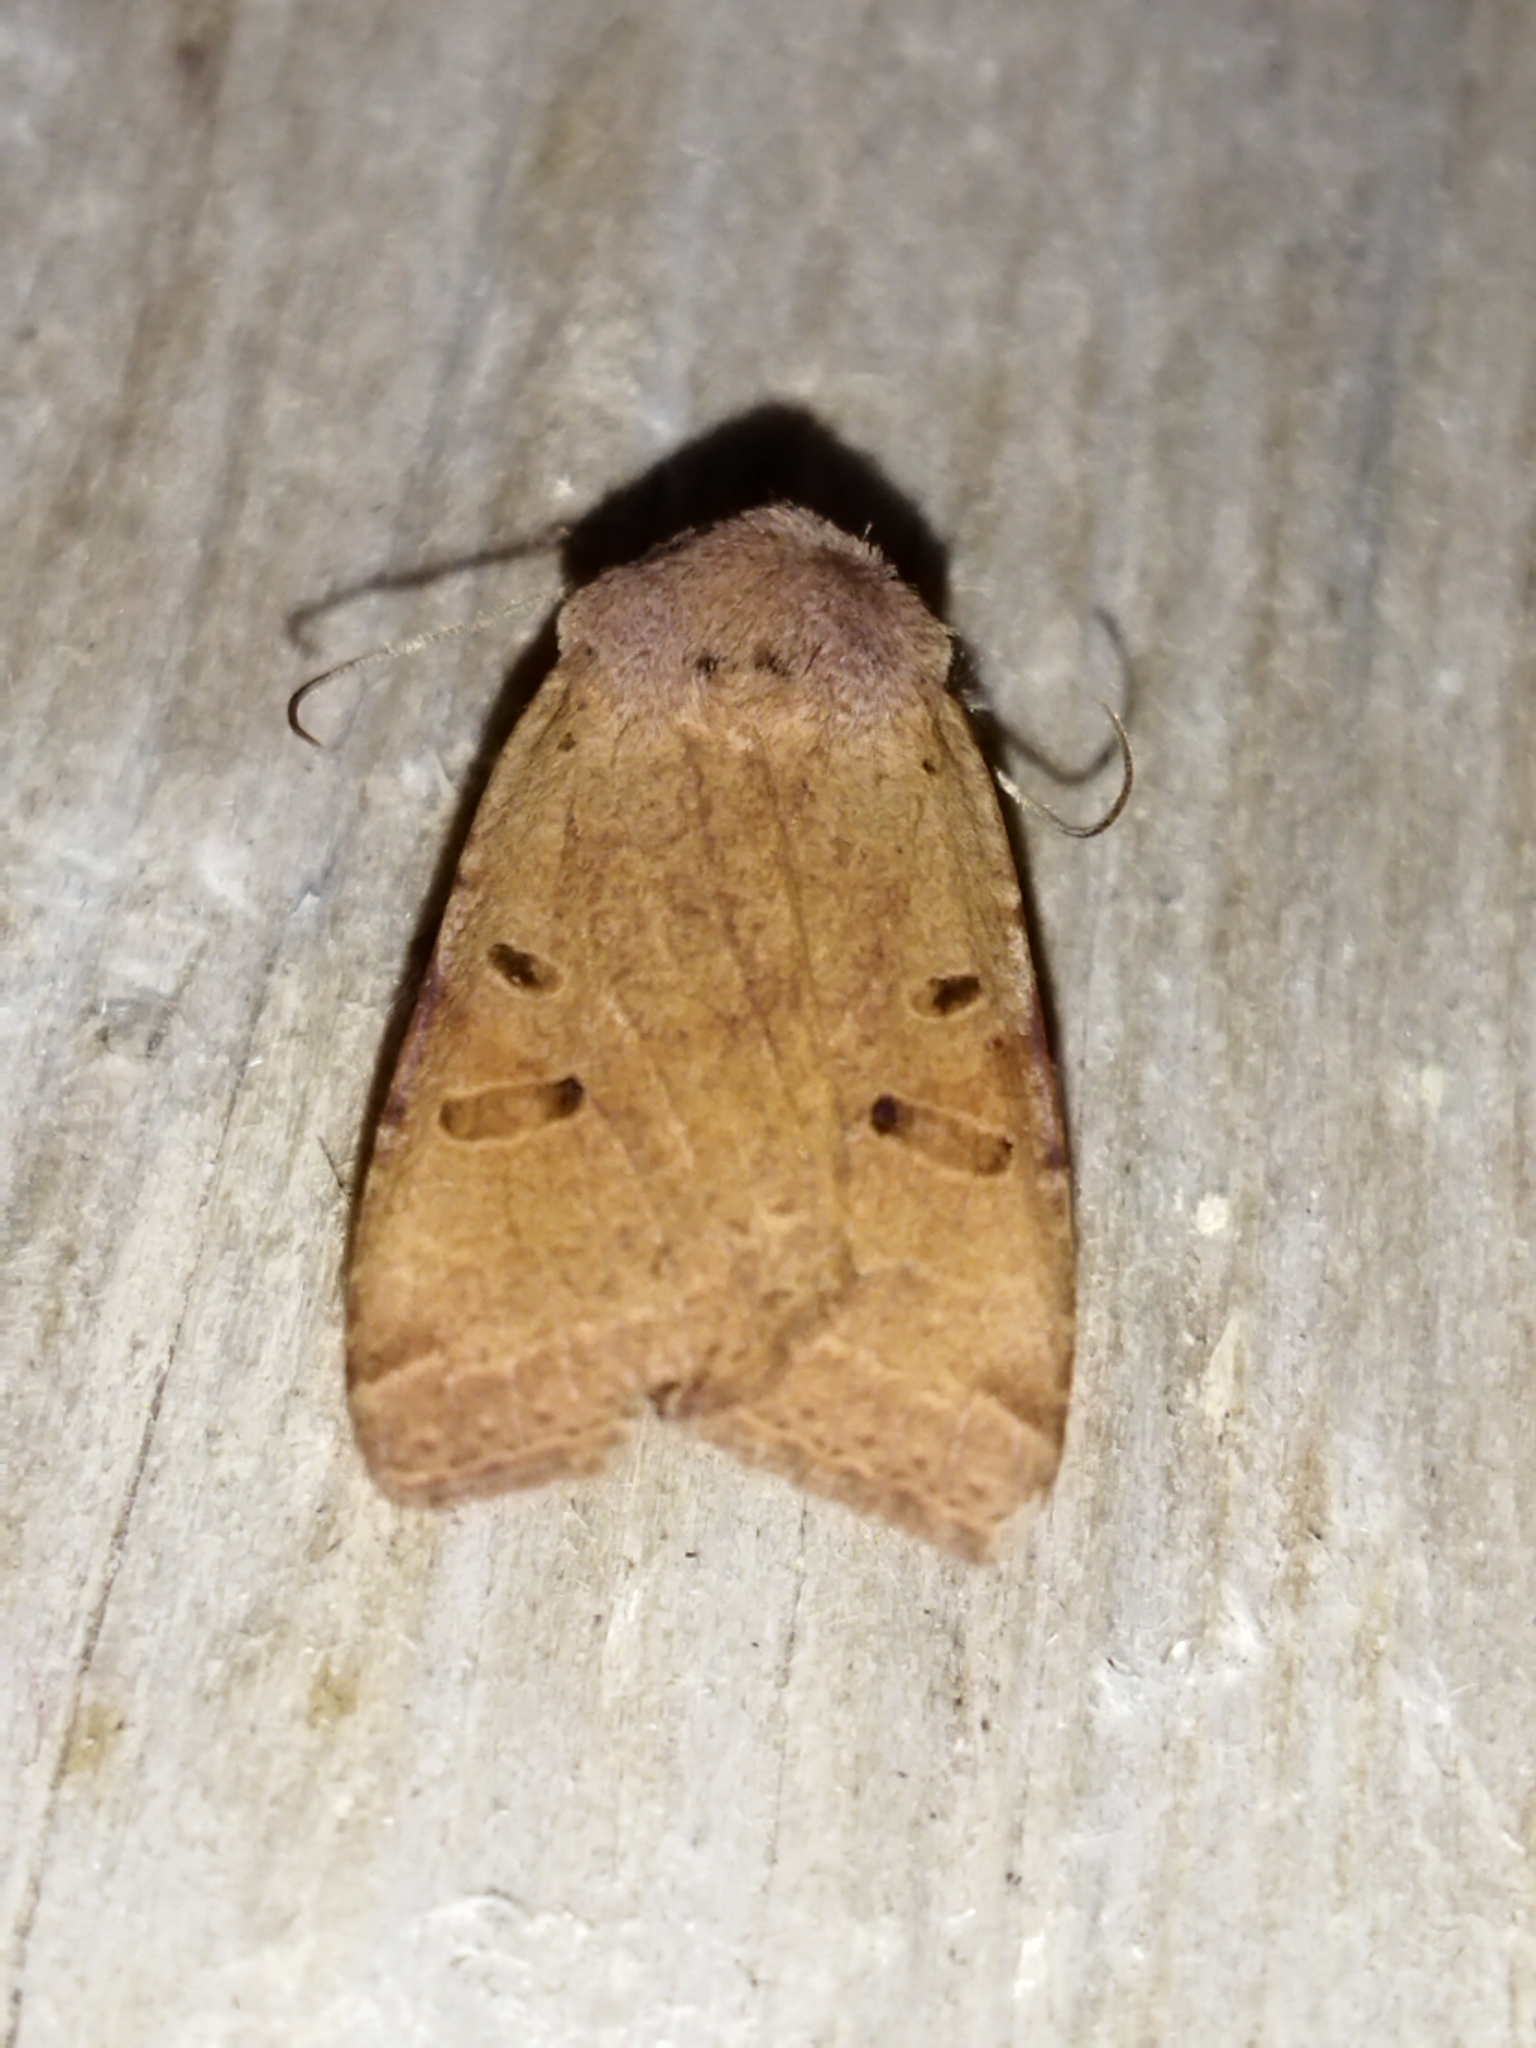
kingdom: Animalia
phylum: Arthropoda
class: Insecta
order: Lepidoptera
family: Noctuidae
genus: Agrochola
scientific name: Agrochola lychnidis
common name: Beaded chestnut
